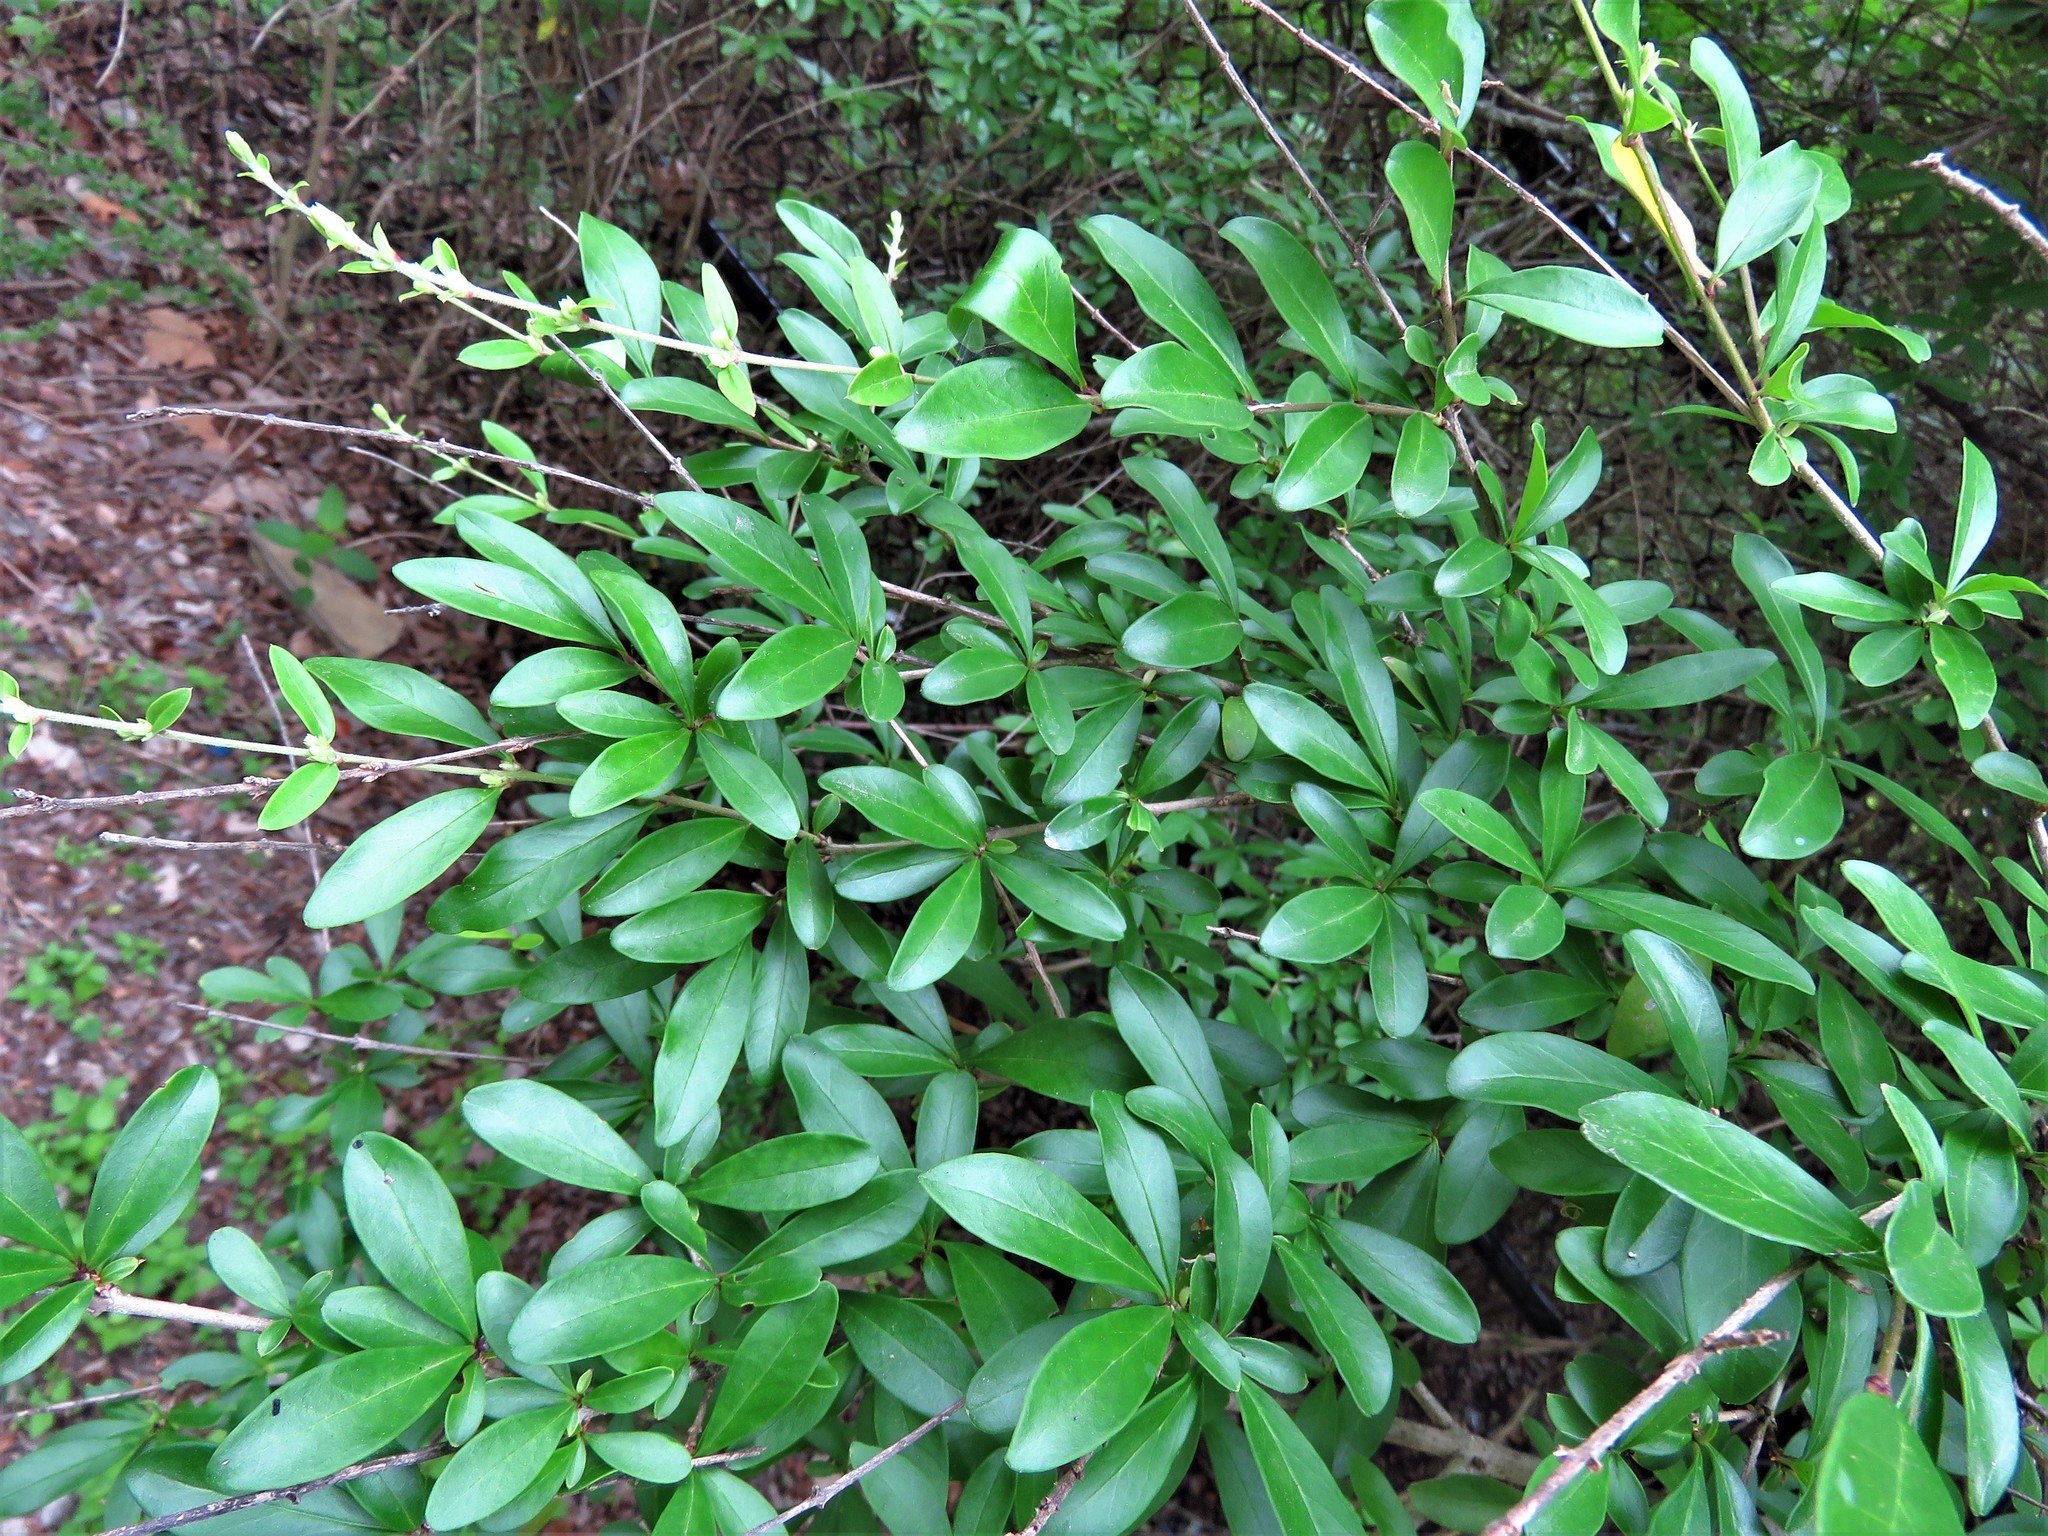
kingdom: Plantae
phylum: Tracheophyta
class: Magnoliopsida
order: Lamiales
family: Oleaceae
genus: Ligustrum
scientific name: Ligustrum quihoui
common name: Waxyleaf privet
